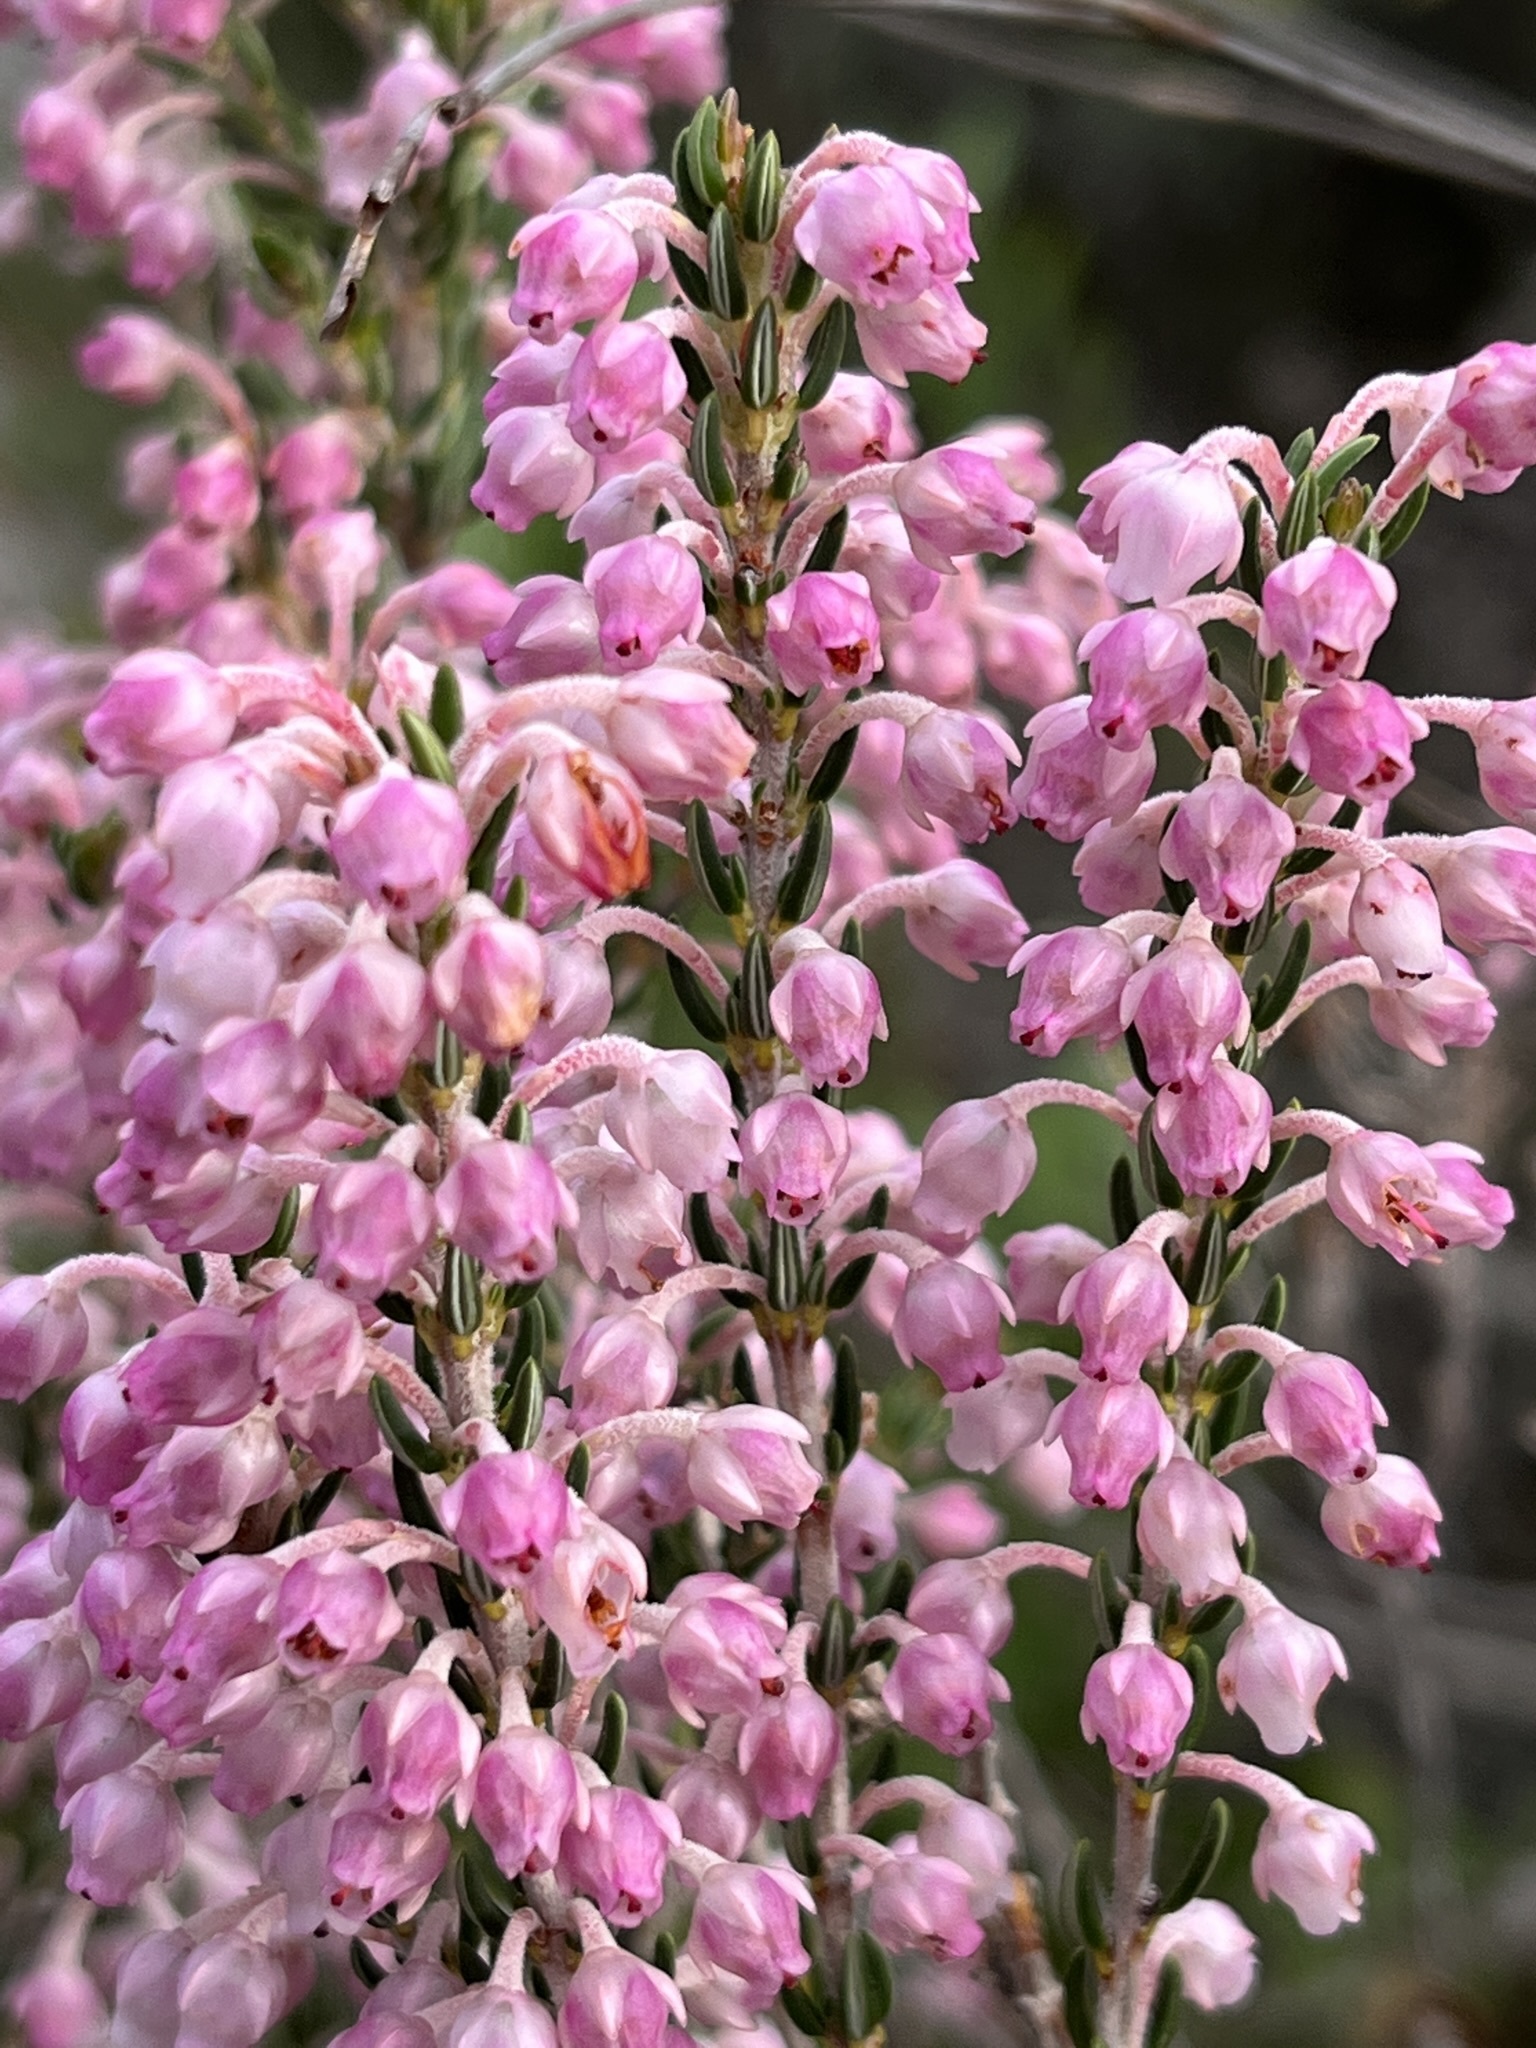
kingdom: Plantae
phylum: Tracheophyta
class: Magnoliopsida
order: Ericales
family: Ericaceae
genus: Erica
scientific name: Erica irregularis
